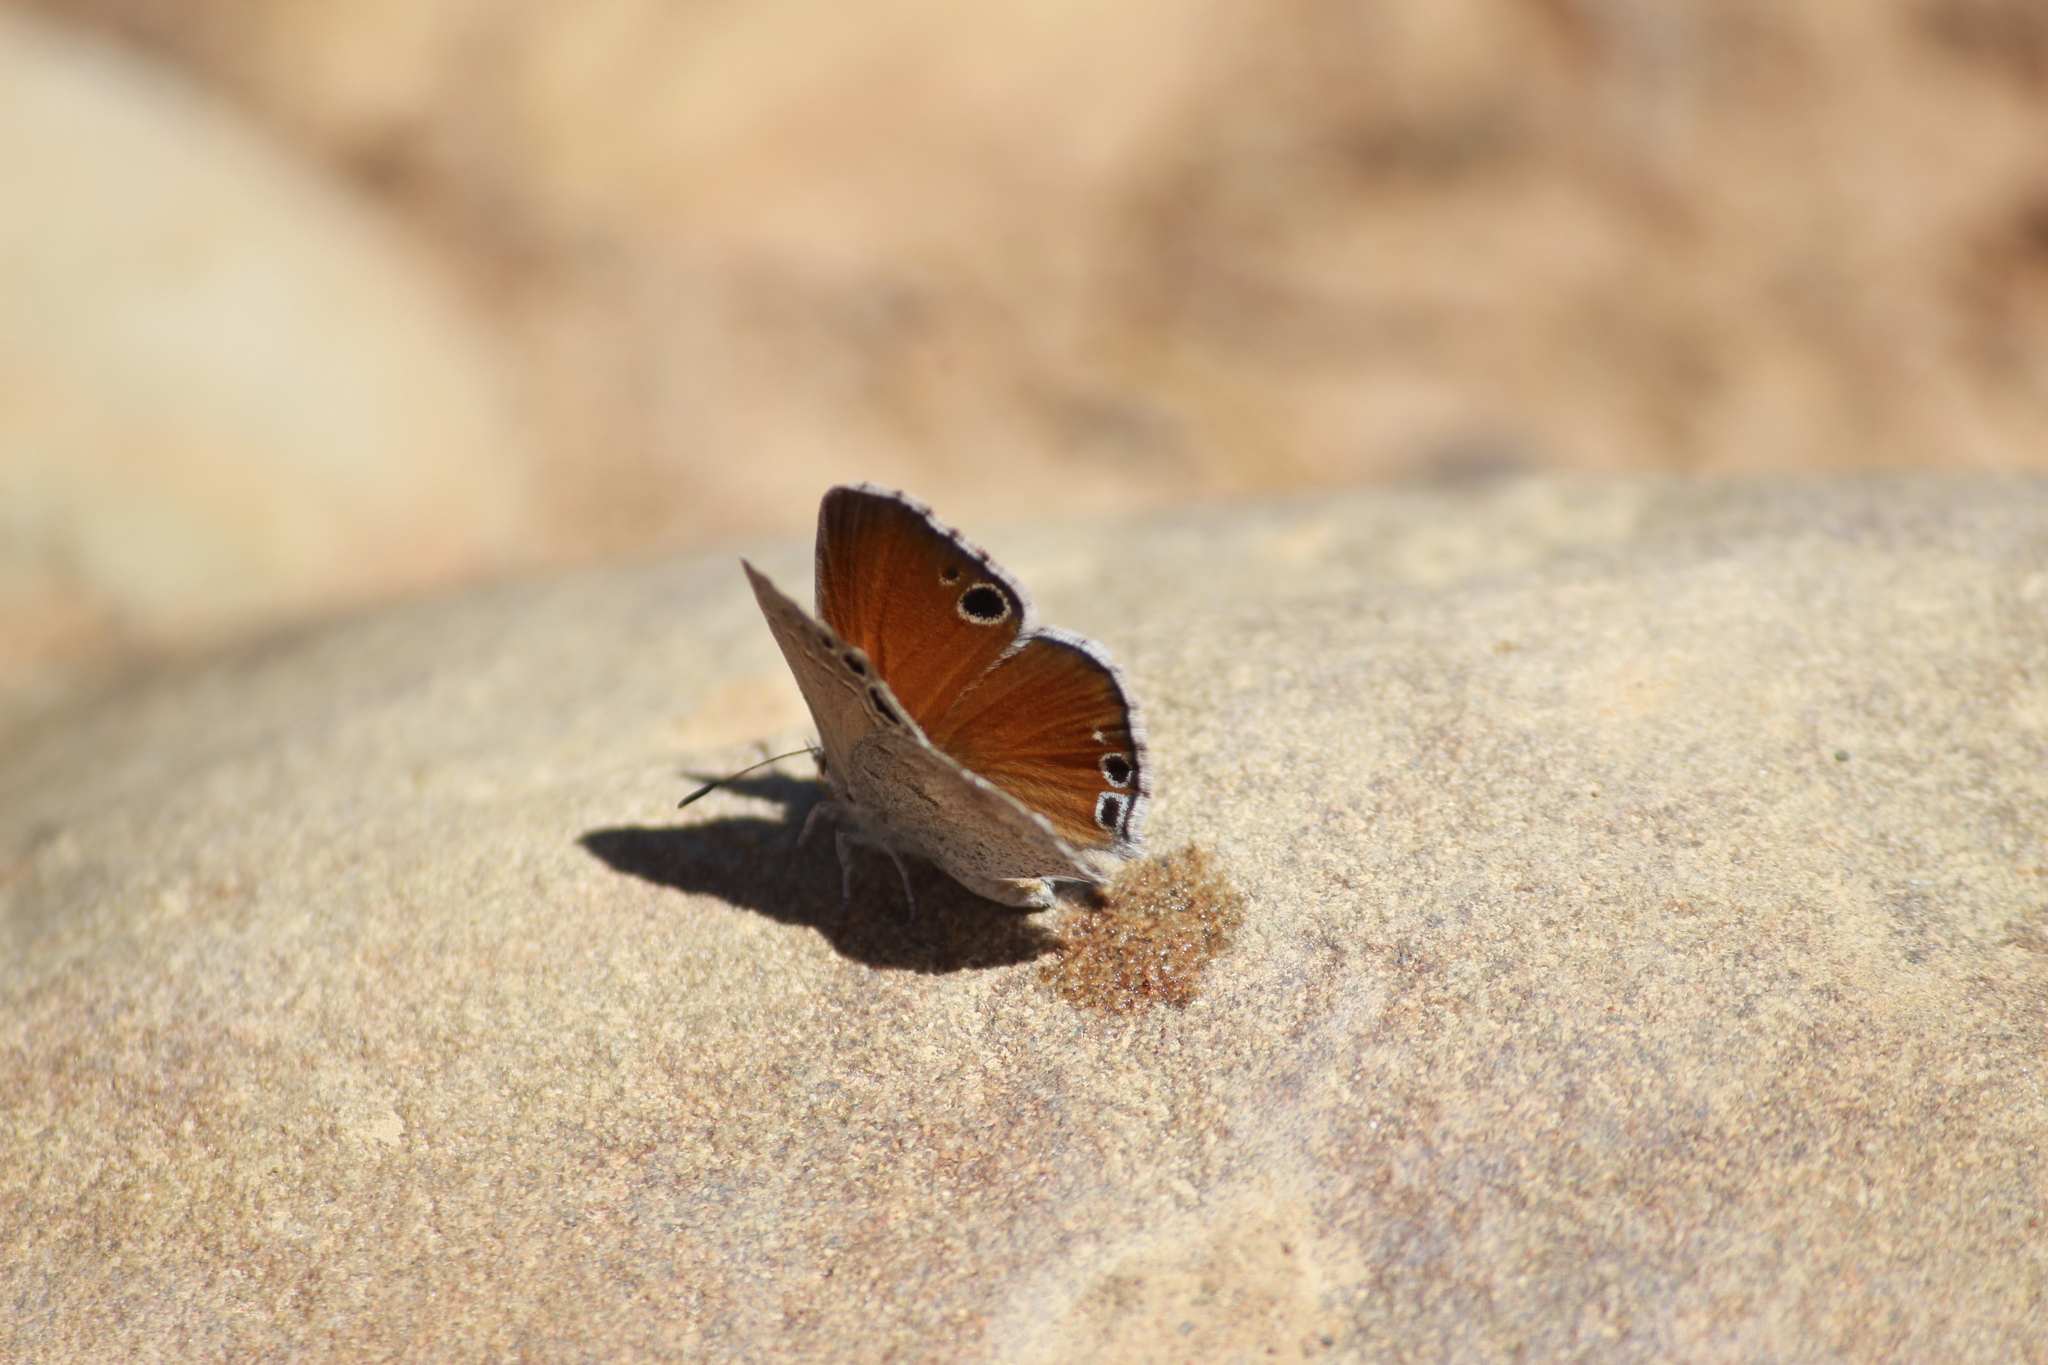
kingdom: Animalia
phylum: Arthropoda
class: Insecta
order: Lepidoptera
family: Lycaenidae
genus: Leptomyrina
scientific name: Leptomyrina lara
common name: Cape black-eye
